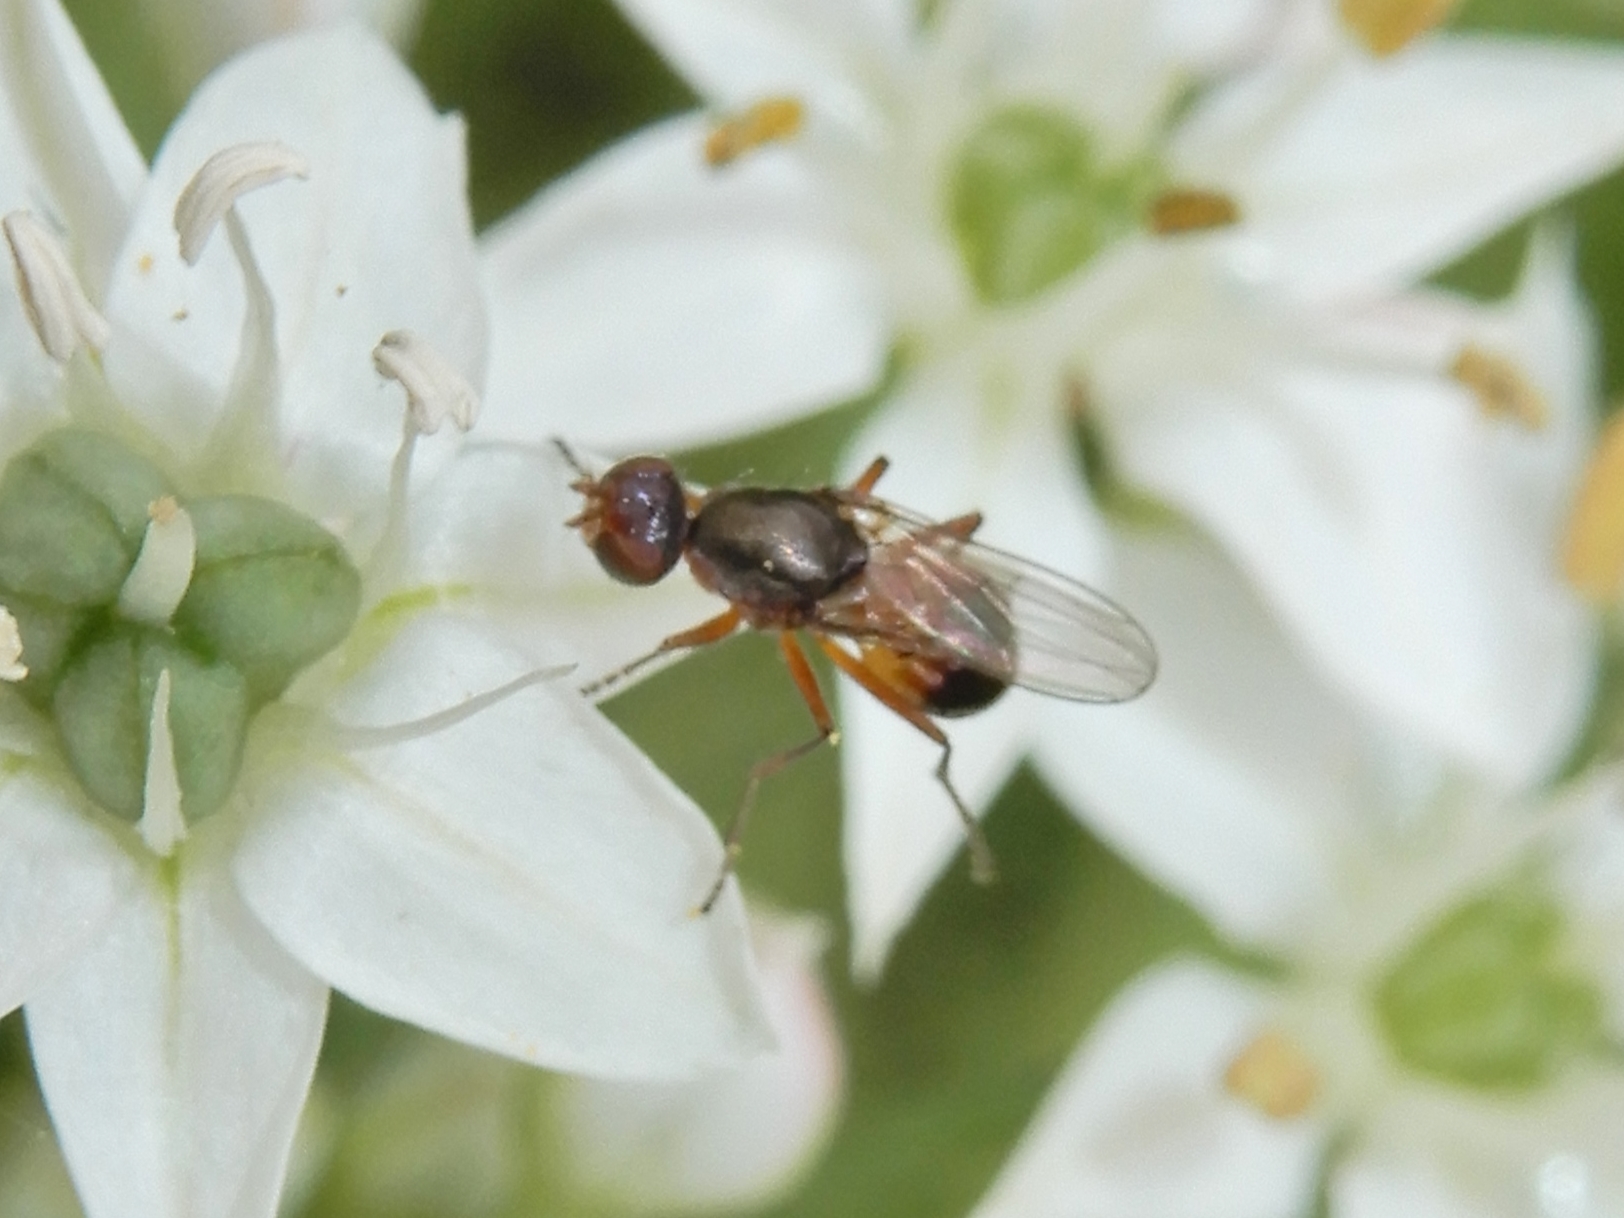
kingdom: Animalia
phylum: Arthropoda
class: Insecta
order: Diptera
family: Sepsidae
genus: Lasionemopoda
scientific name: Lasionemopoda hirsuta
